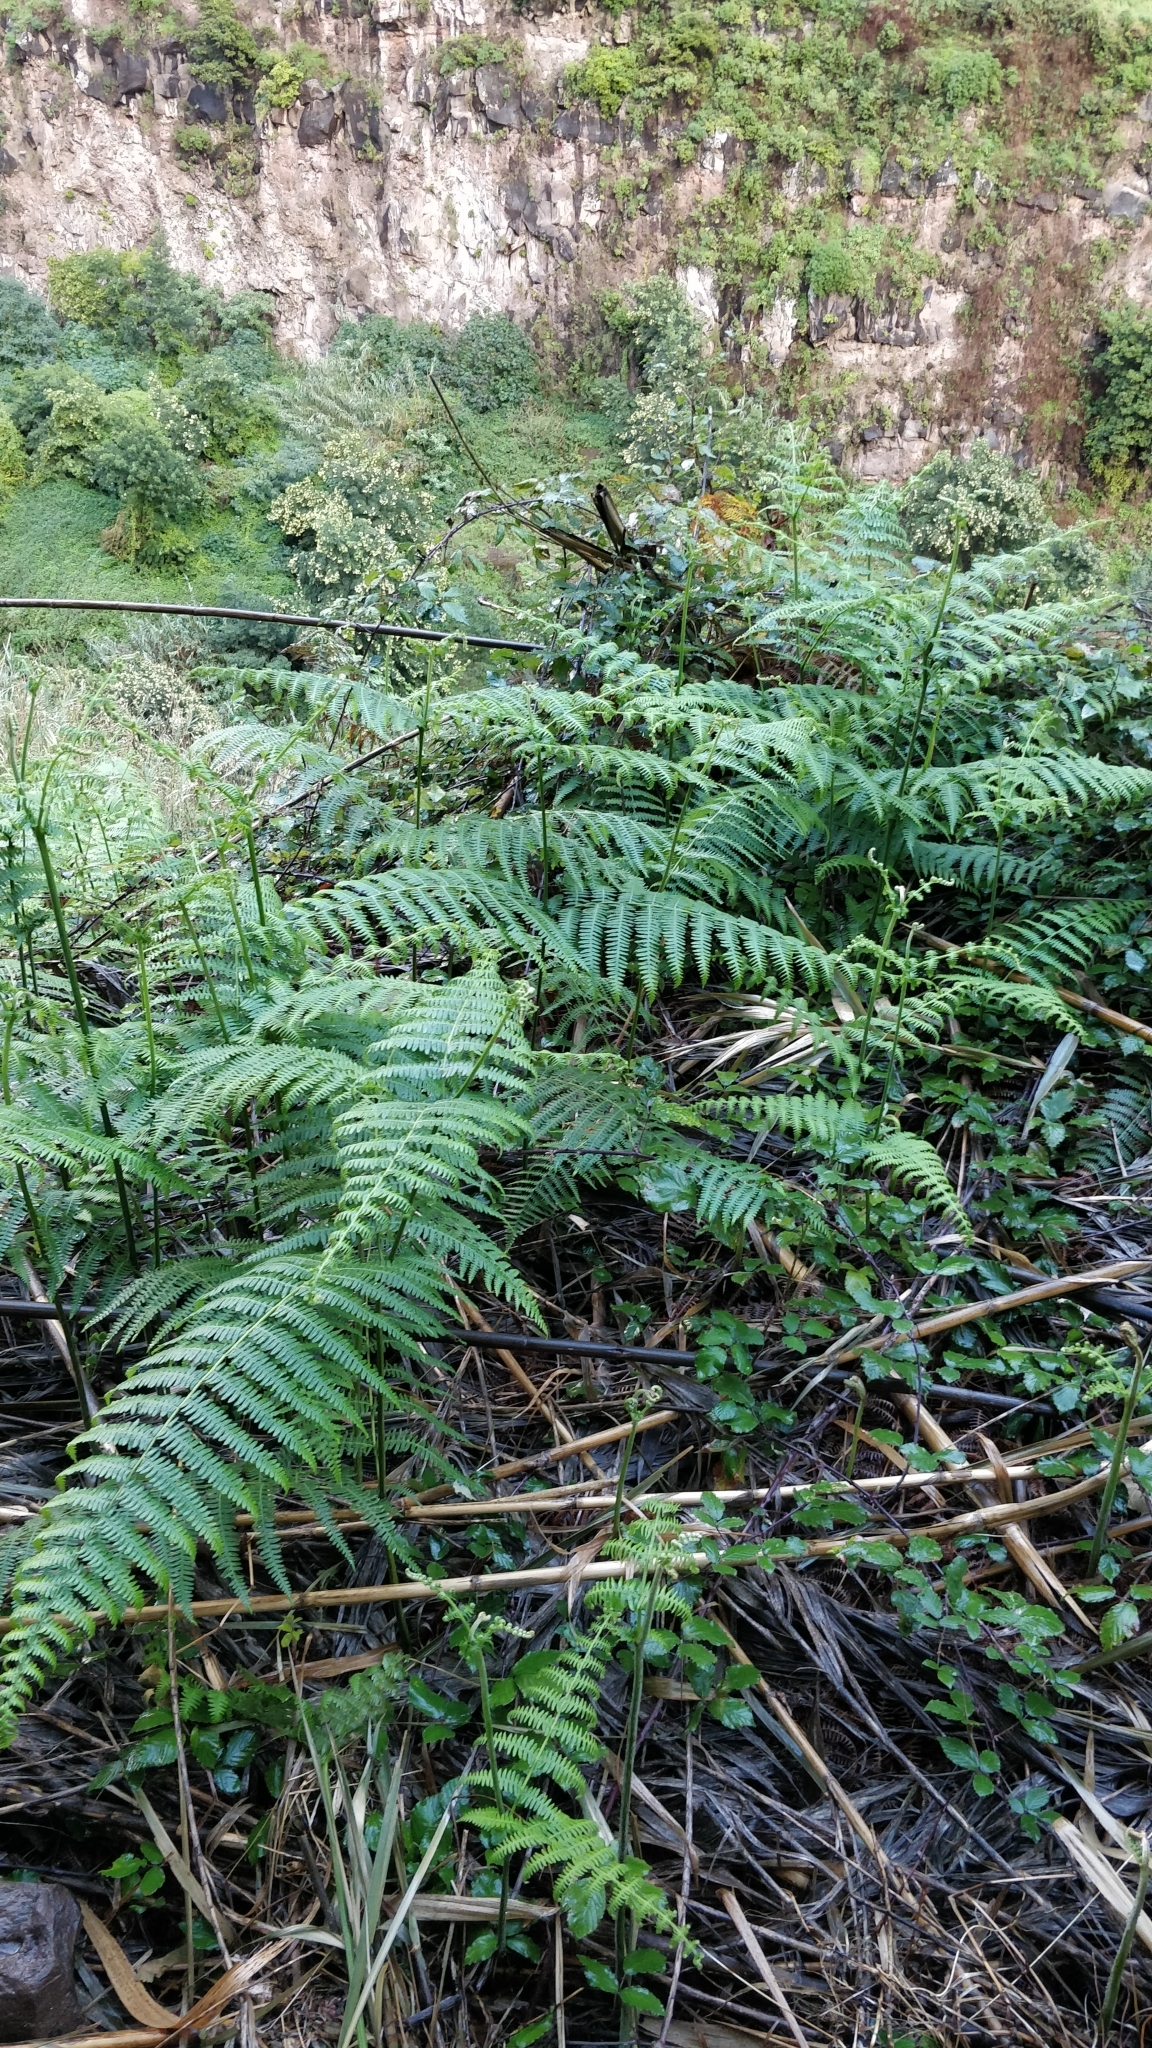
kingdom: Plantae
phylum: Tracheophyta
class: Polypodiopsida
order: Polypodiales
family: Dennstaedtiaceae
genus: Pteridium
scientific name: Pteridium aquilinum
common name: Bracken
